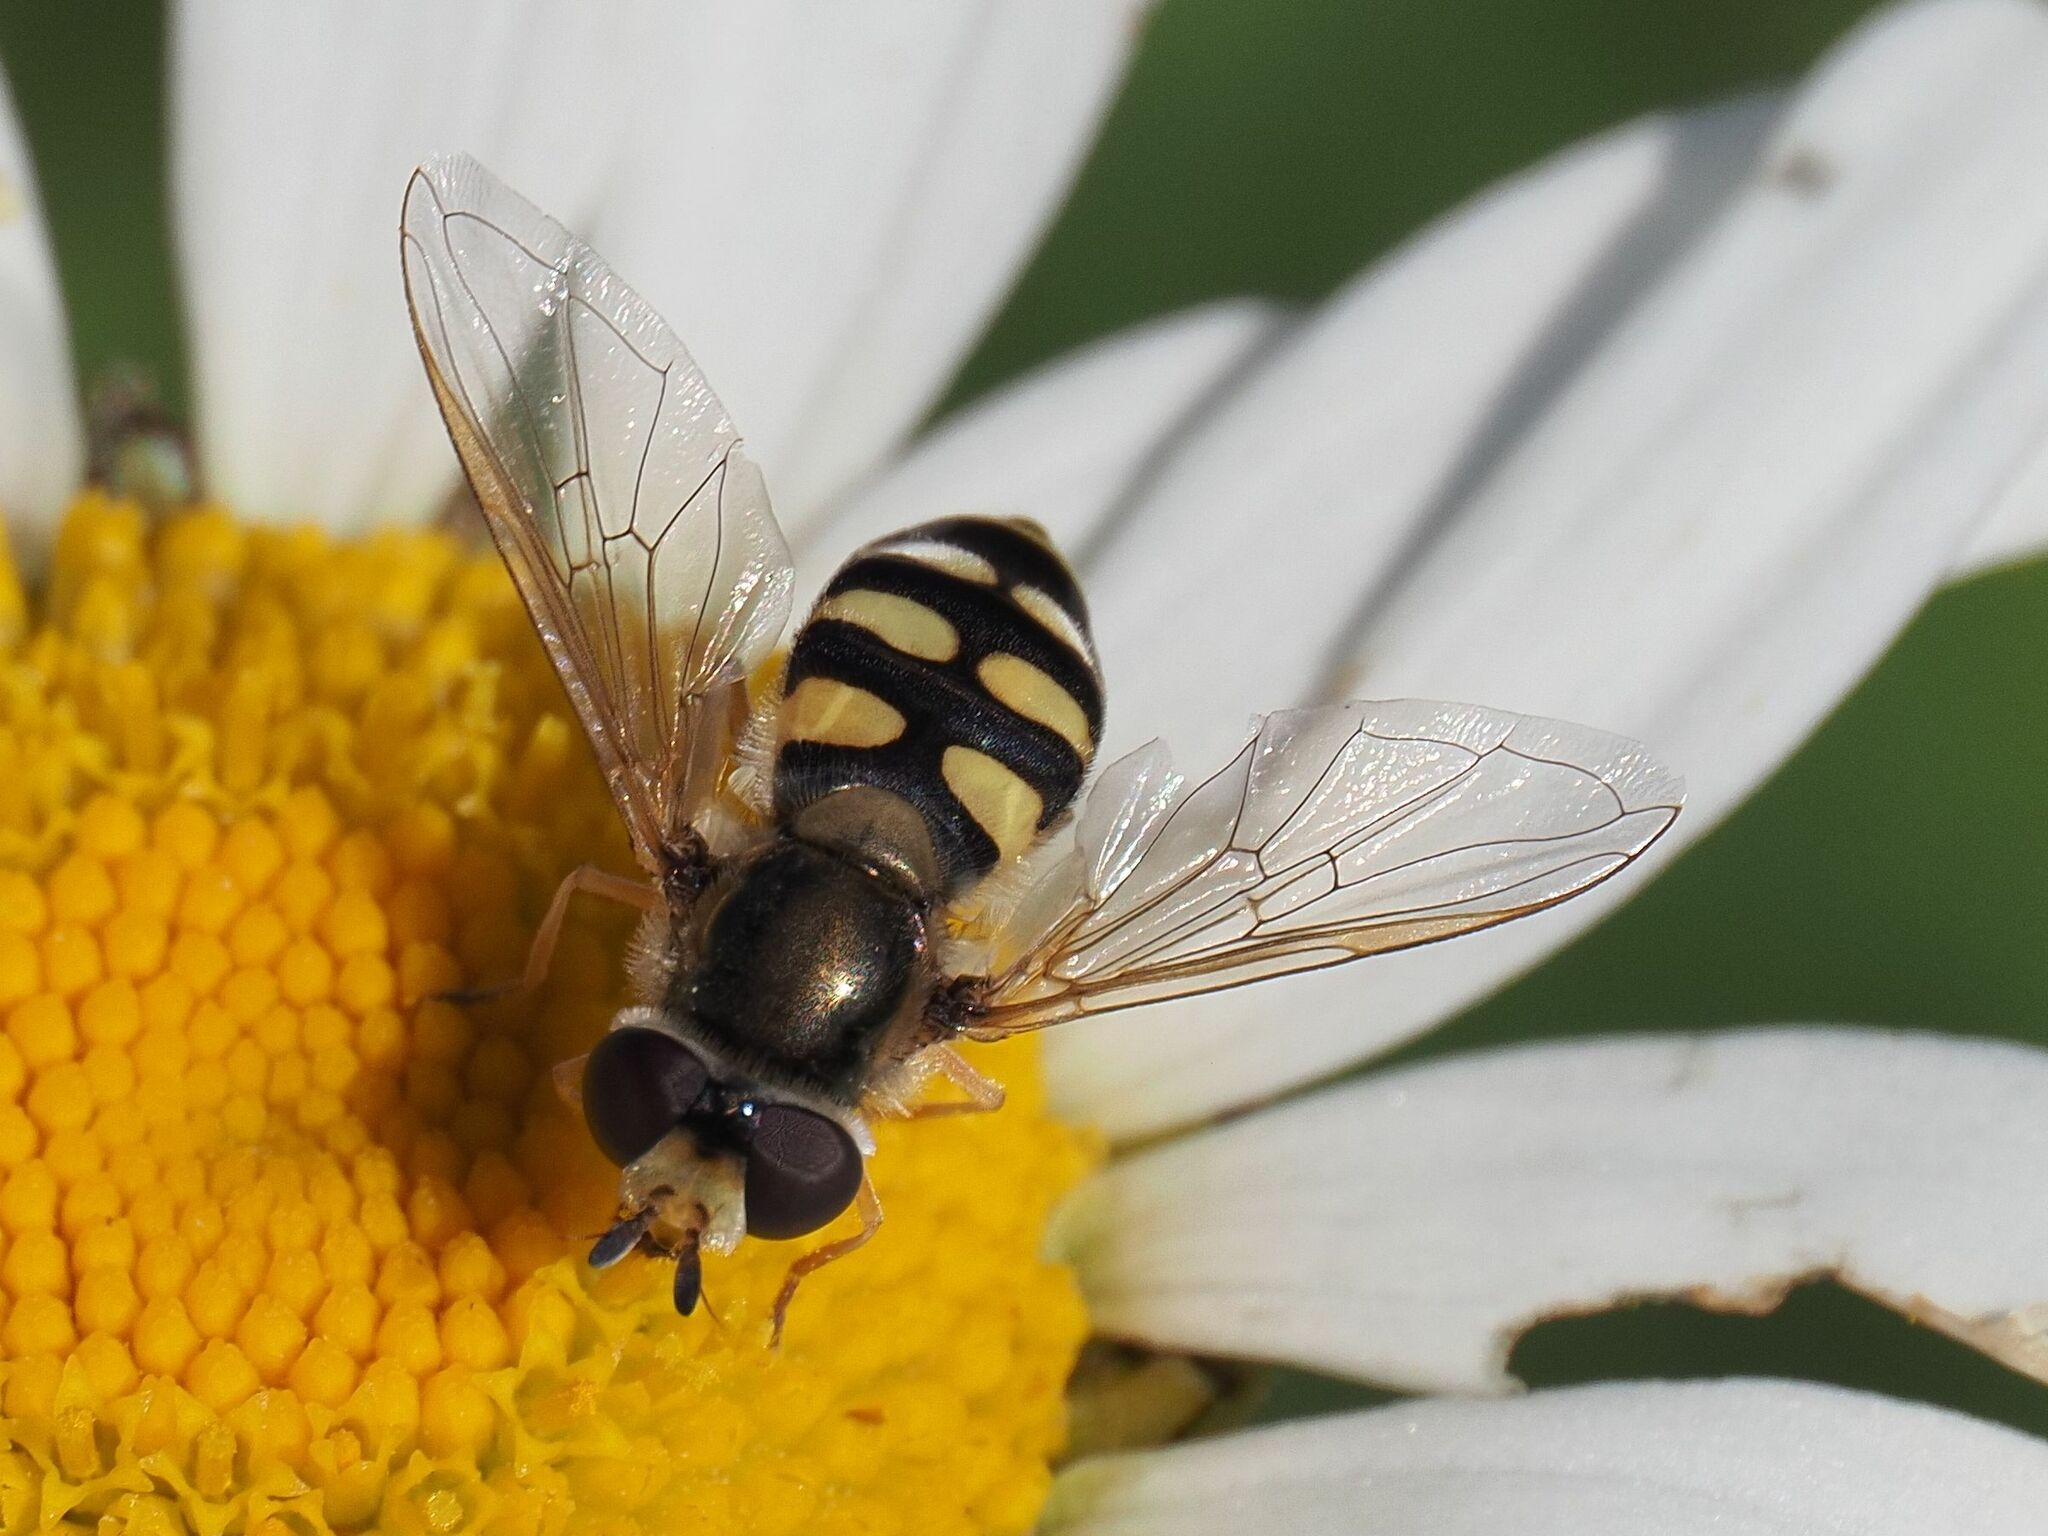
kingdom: Animalia
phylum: Arthropoda
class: Insecta
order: Diptera
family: Syrphidae
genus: Eupeodes
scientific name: Eupeodes corollae
